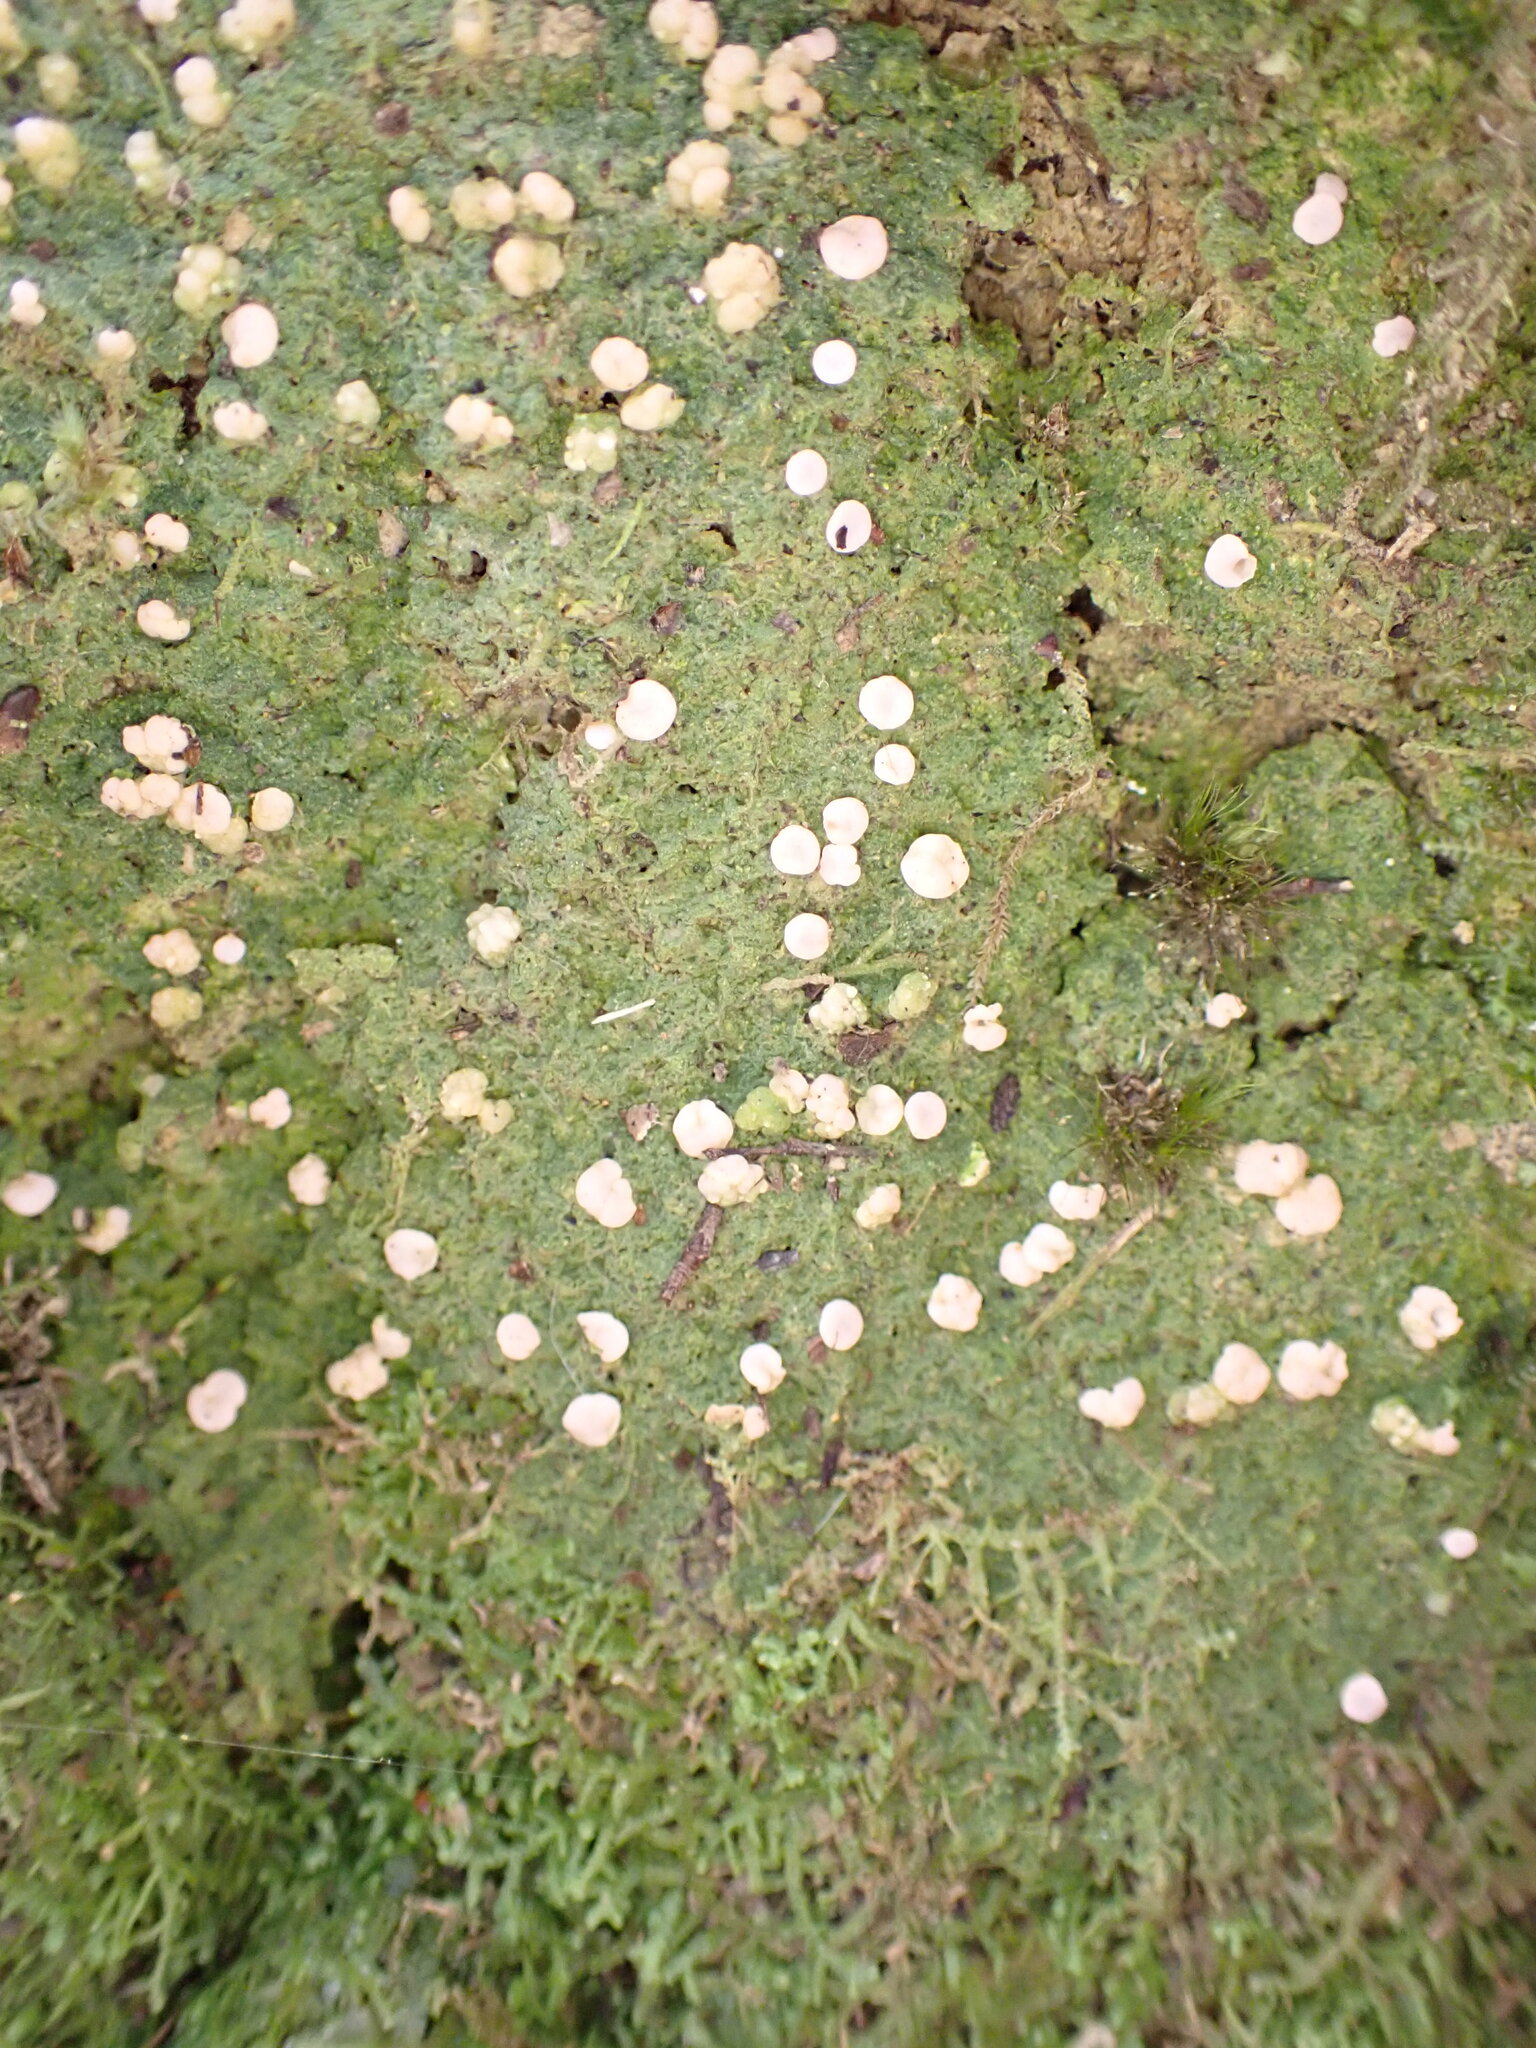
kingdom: Fungi
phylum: Ascomycota
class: Lecanoromycetes
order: Pertusariales
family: Icmadophilaceae
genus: Dibaeis
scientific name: Dibaeis absoluta
